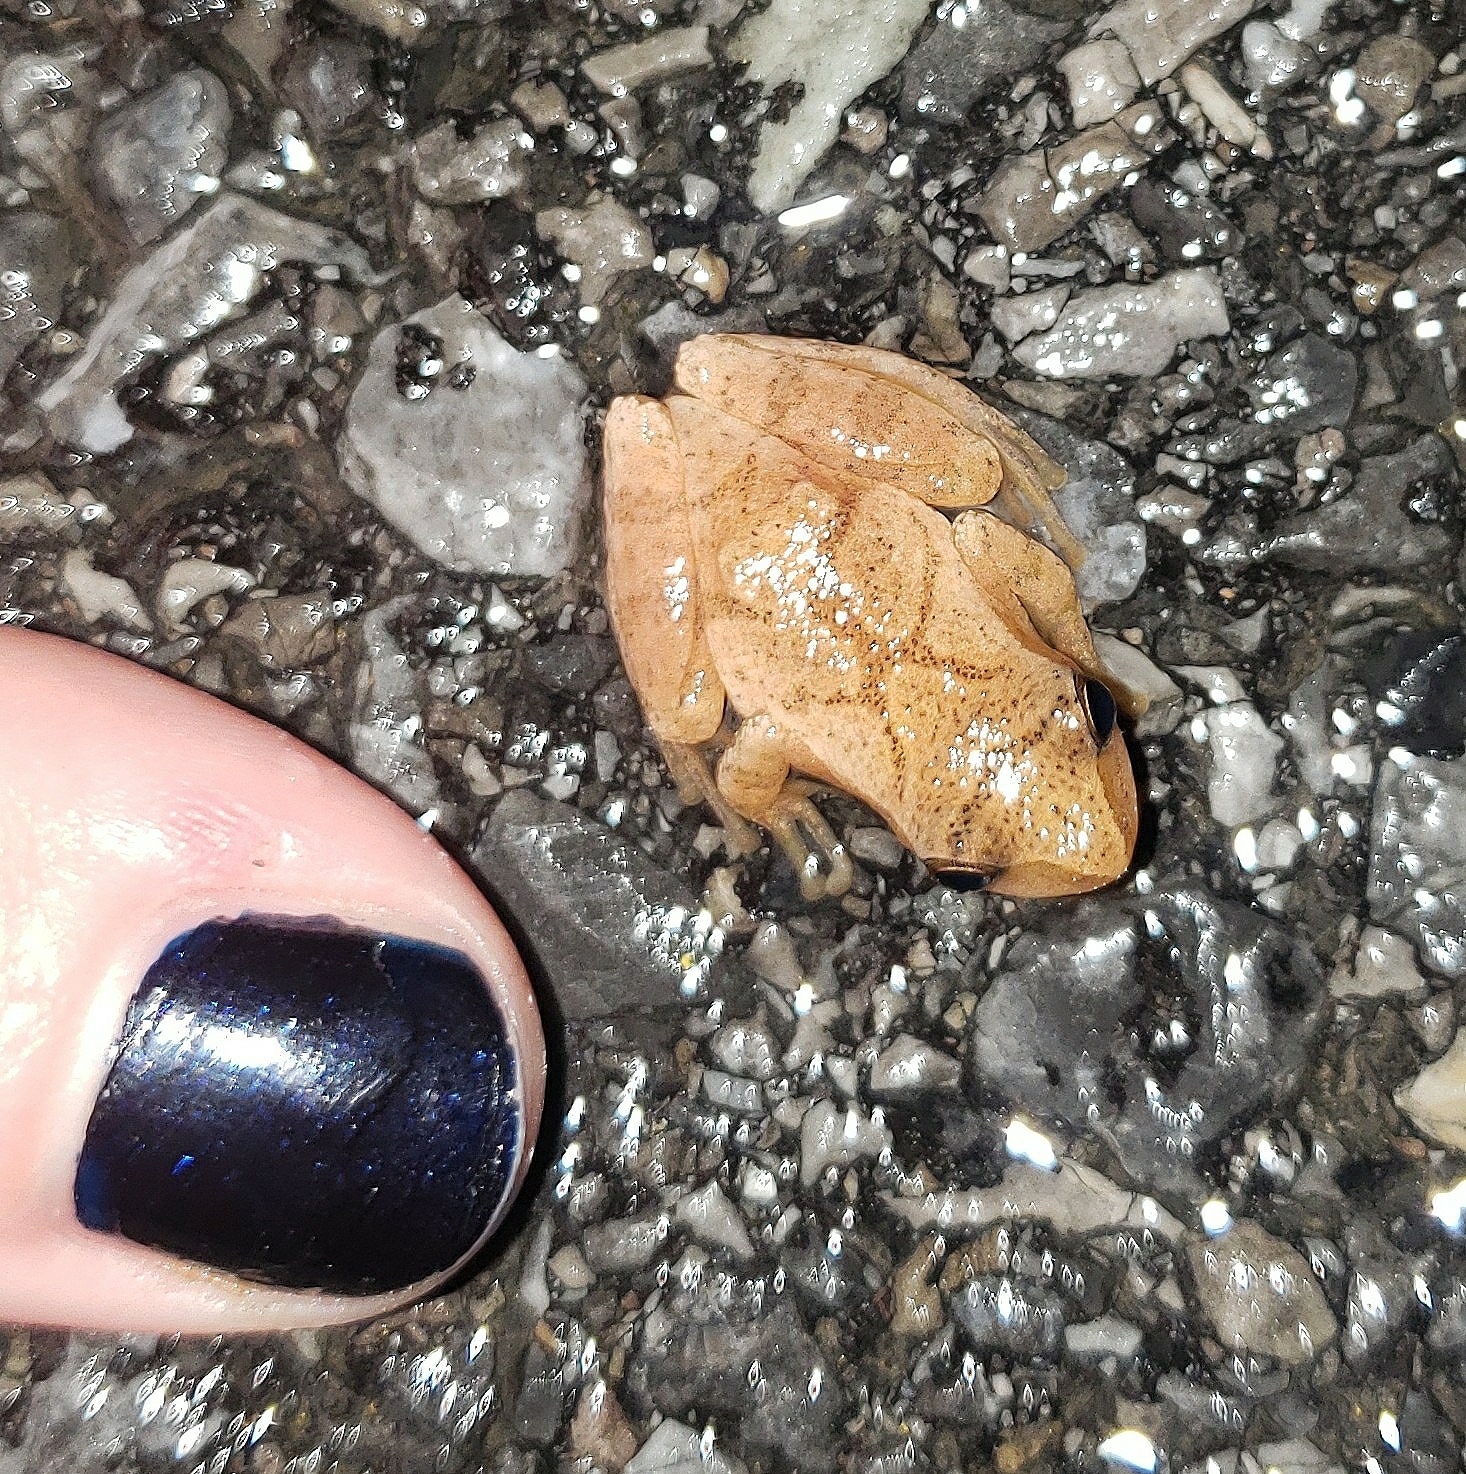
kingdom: Animalia
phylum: Chordata
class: Amphibia
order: Anura
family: Hylidae
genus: Pseudacris
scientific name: Pseudacris crucifer
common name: Spring peeper
